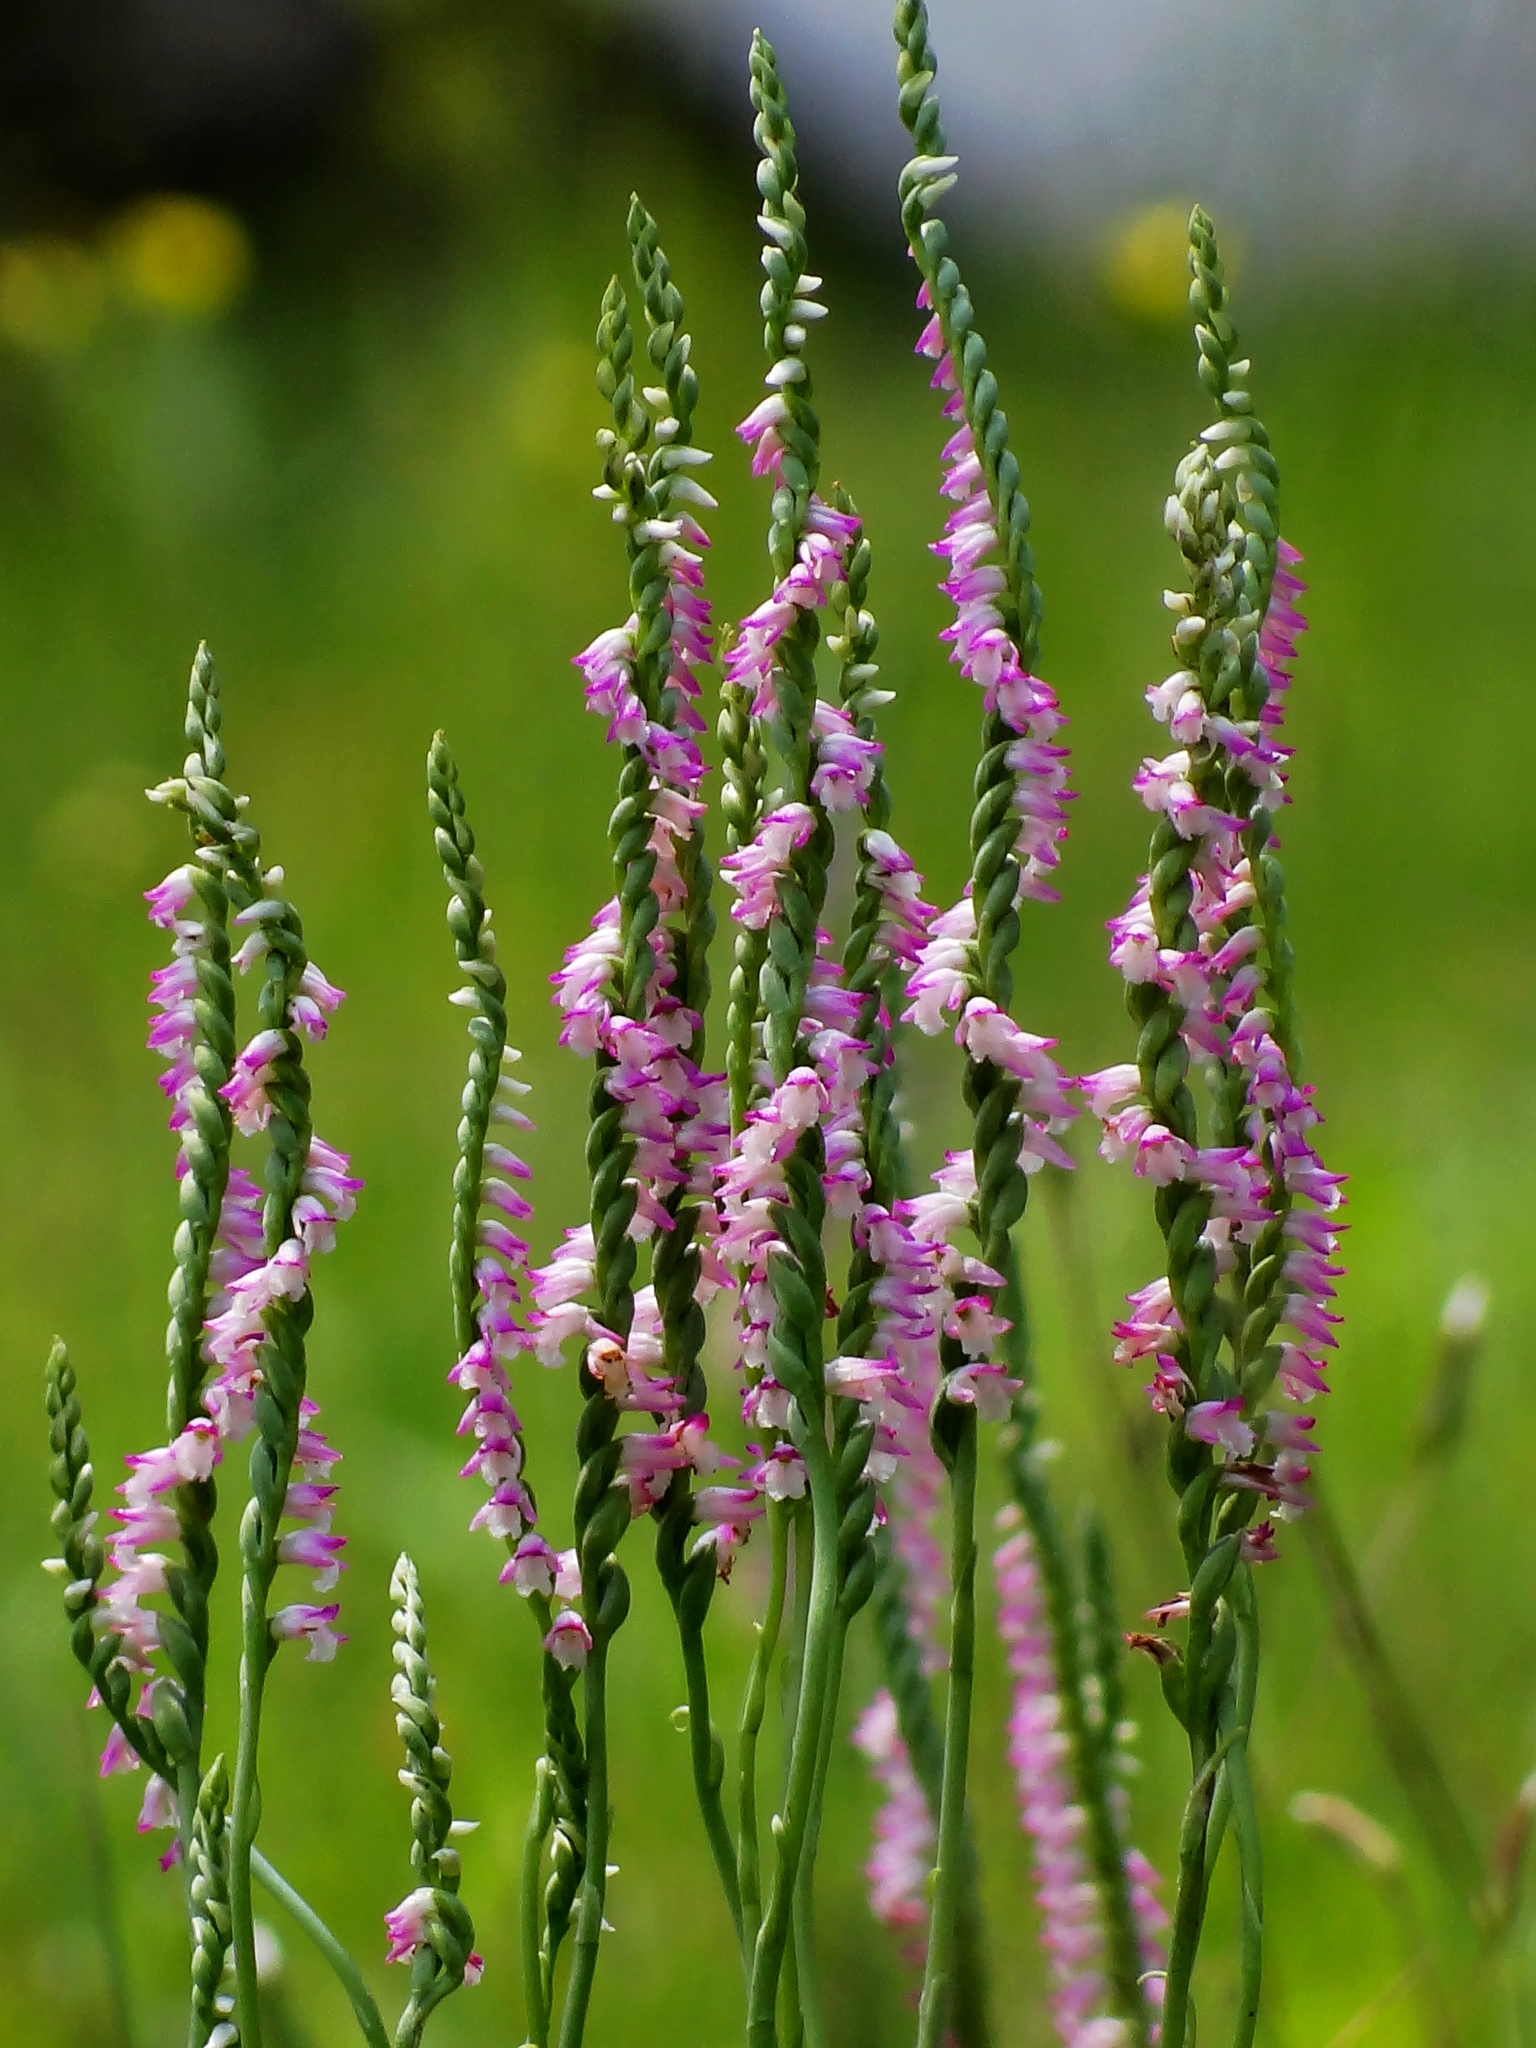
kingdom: Plantae
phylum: Tracheophyta
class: Liliopsida
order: Asparagales
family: Orchidaceae
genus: Spiranthes
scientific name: Spiranthes sinensis
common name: Chinese spiranthes
